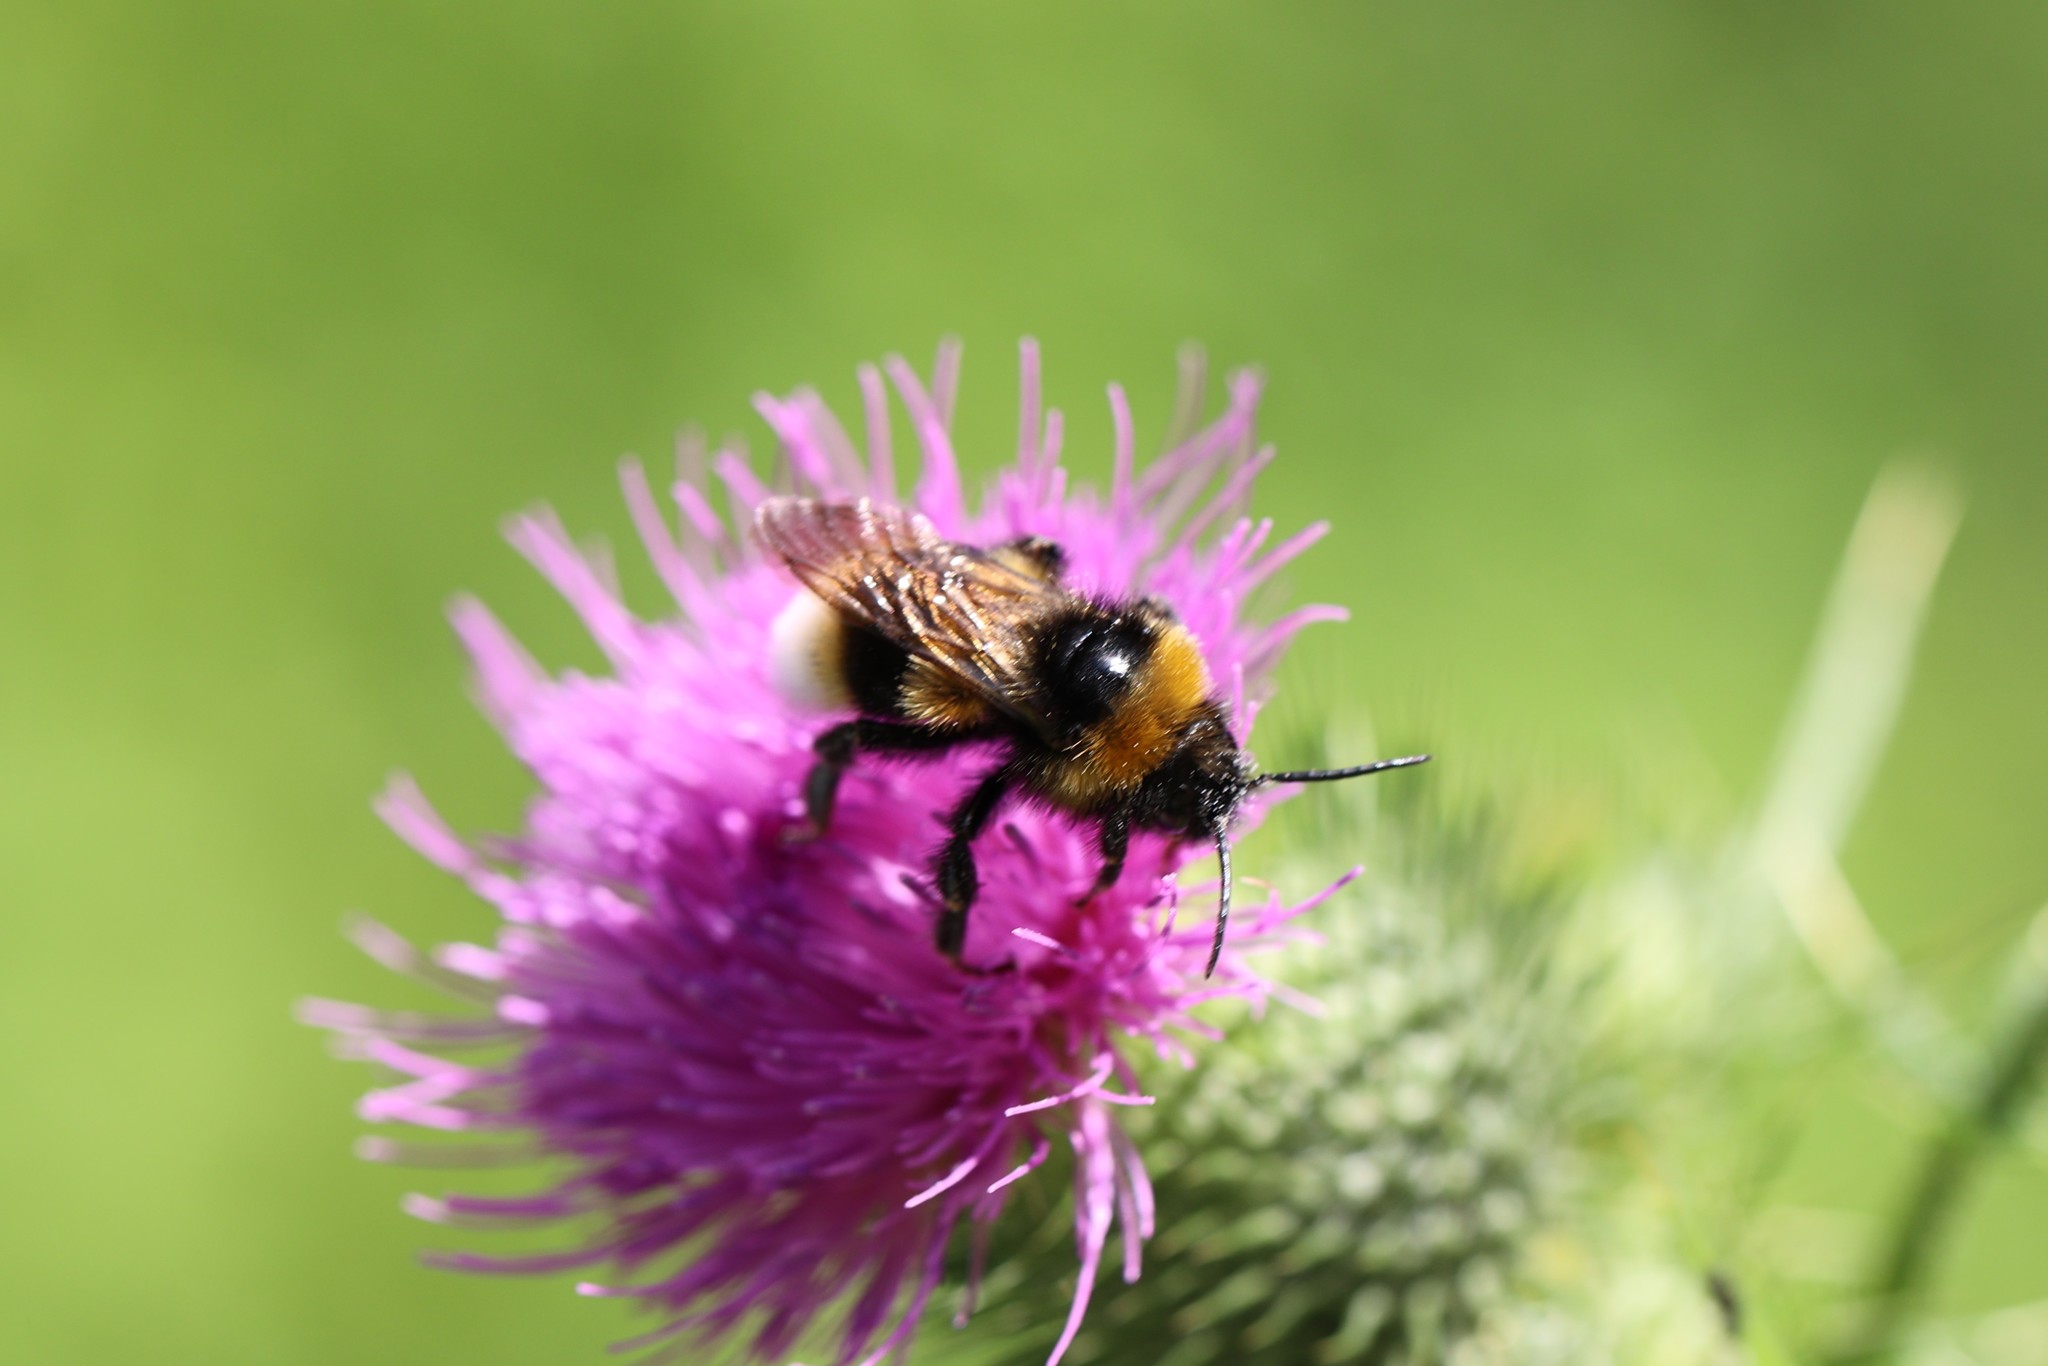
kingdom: Animalia
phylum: Arthropoda
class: Insecta
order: Hymenoptera
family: Apidae
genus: Bombus
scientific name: Bombus vestalis
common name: Vestal cuckoo bee
